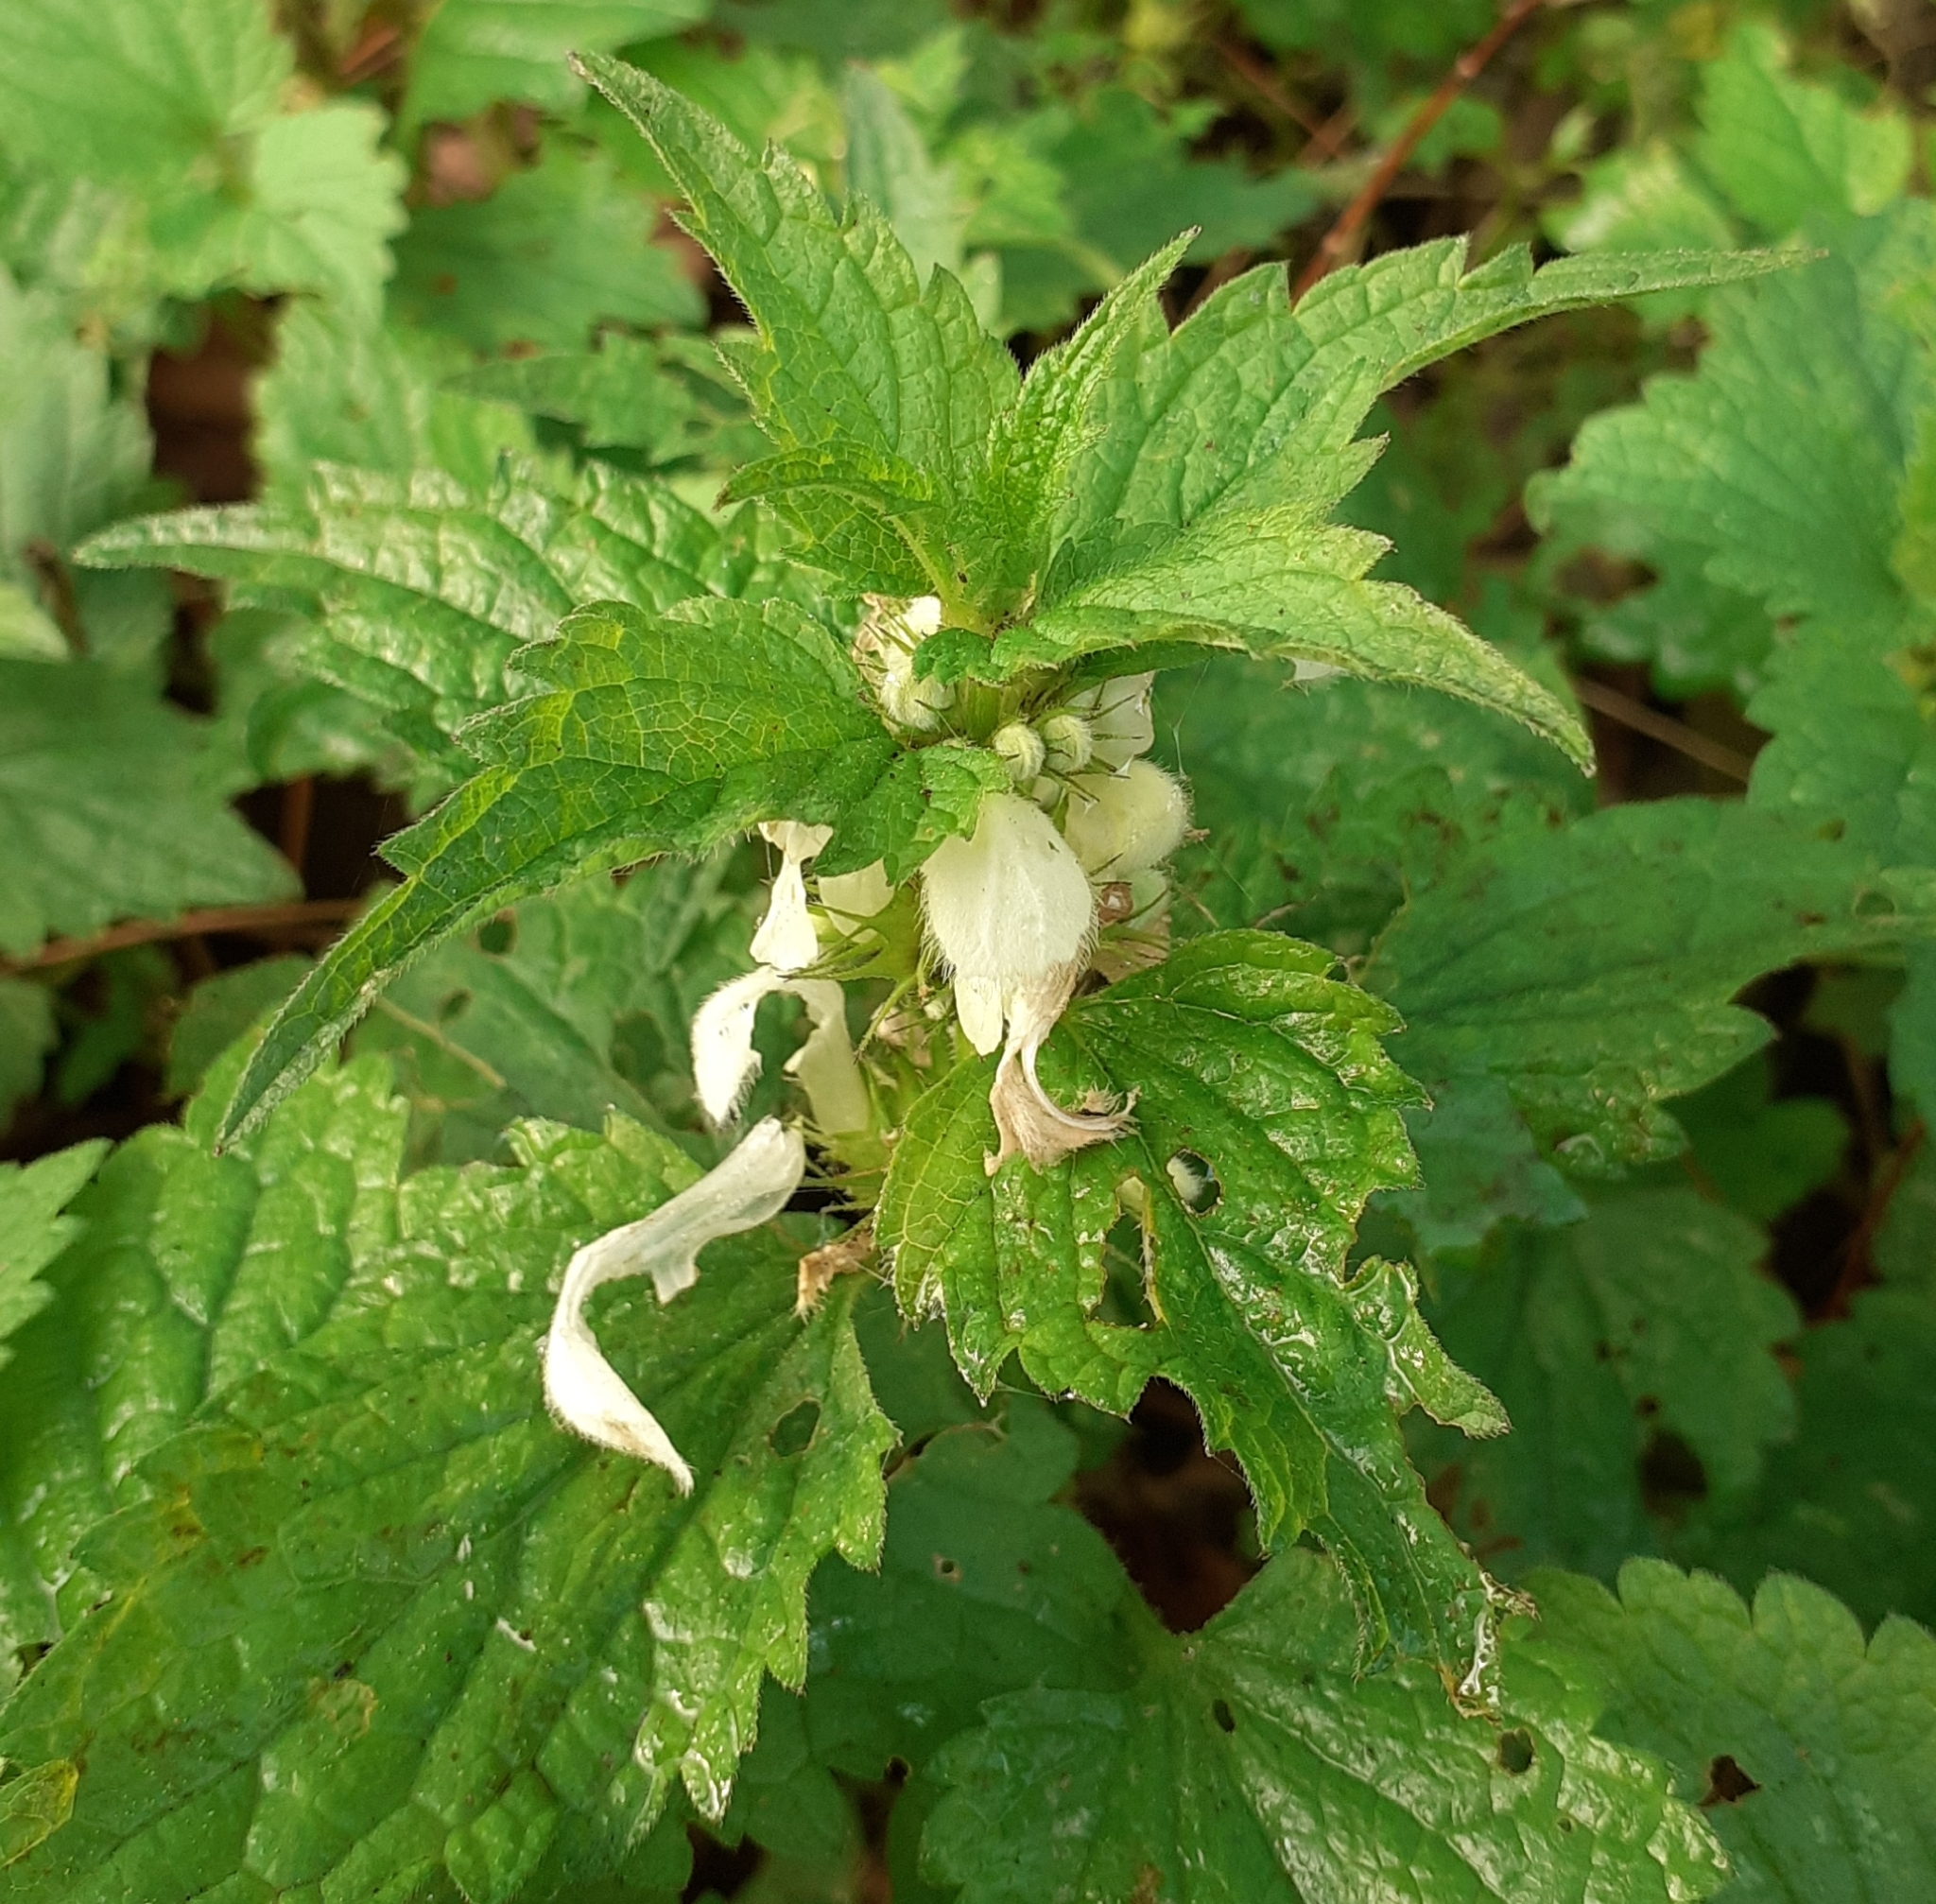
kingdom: Plantae
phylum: Tracheophyta
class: Magnoliopsida
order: Lamiales
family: Lamiaceae
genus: Lamium
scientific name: Lamium album
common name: White dead-nettle
